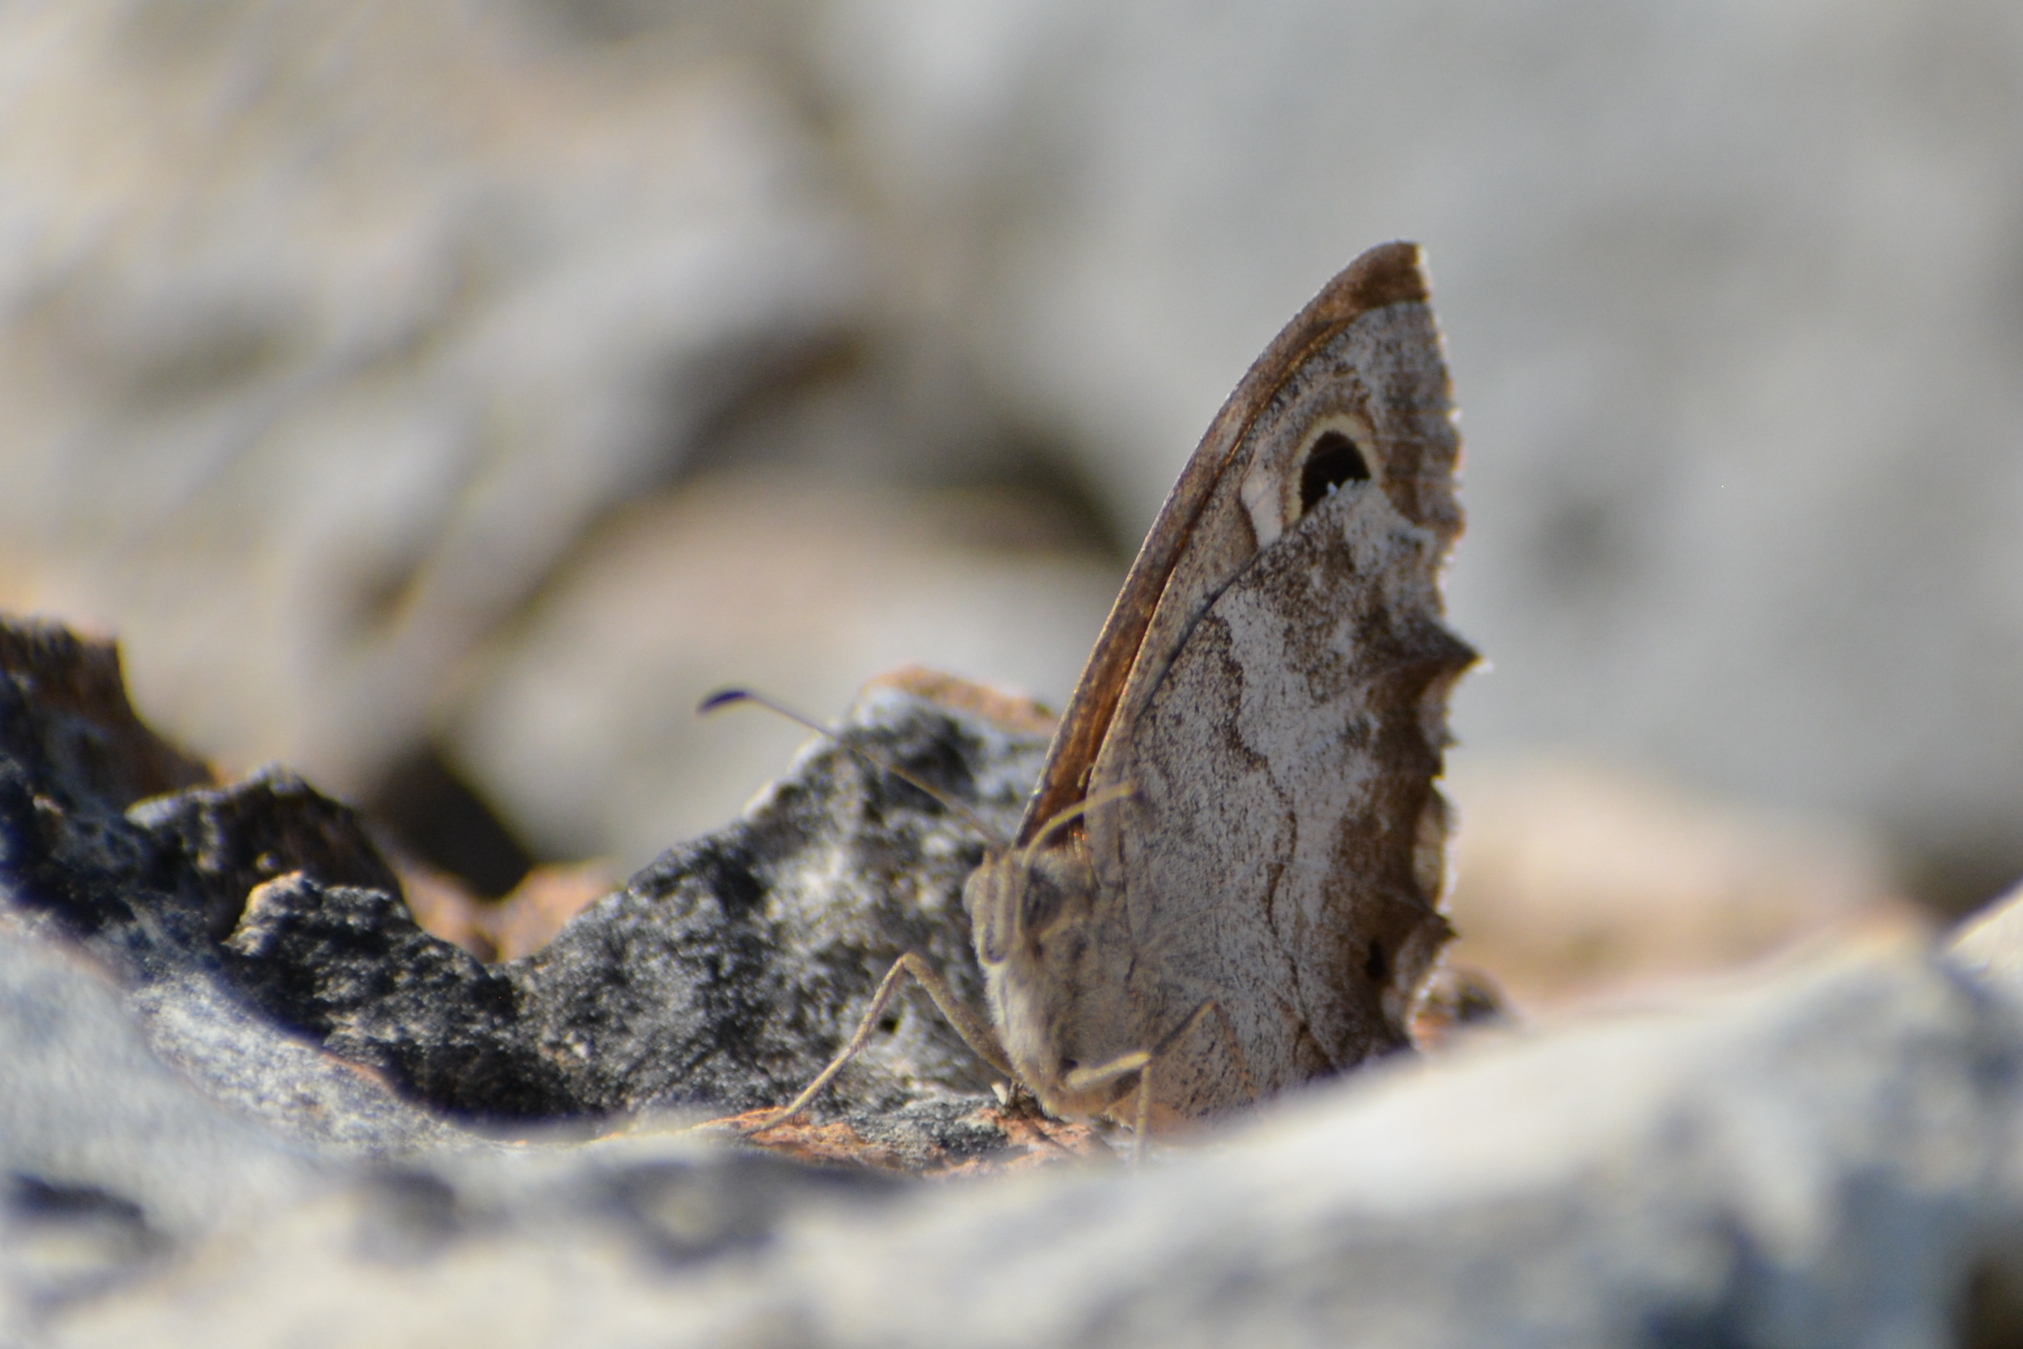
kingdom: Animalia
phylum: Arthropoda
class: Insecta
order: Lepidoptera
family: Nymphalidae
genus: Hipparchia
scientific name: Hipparchia statilinus
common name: Tree grayling
